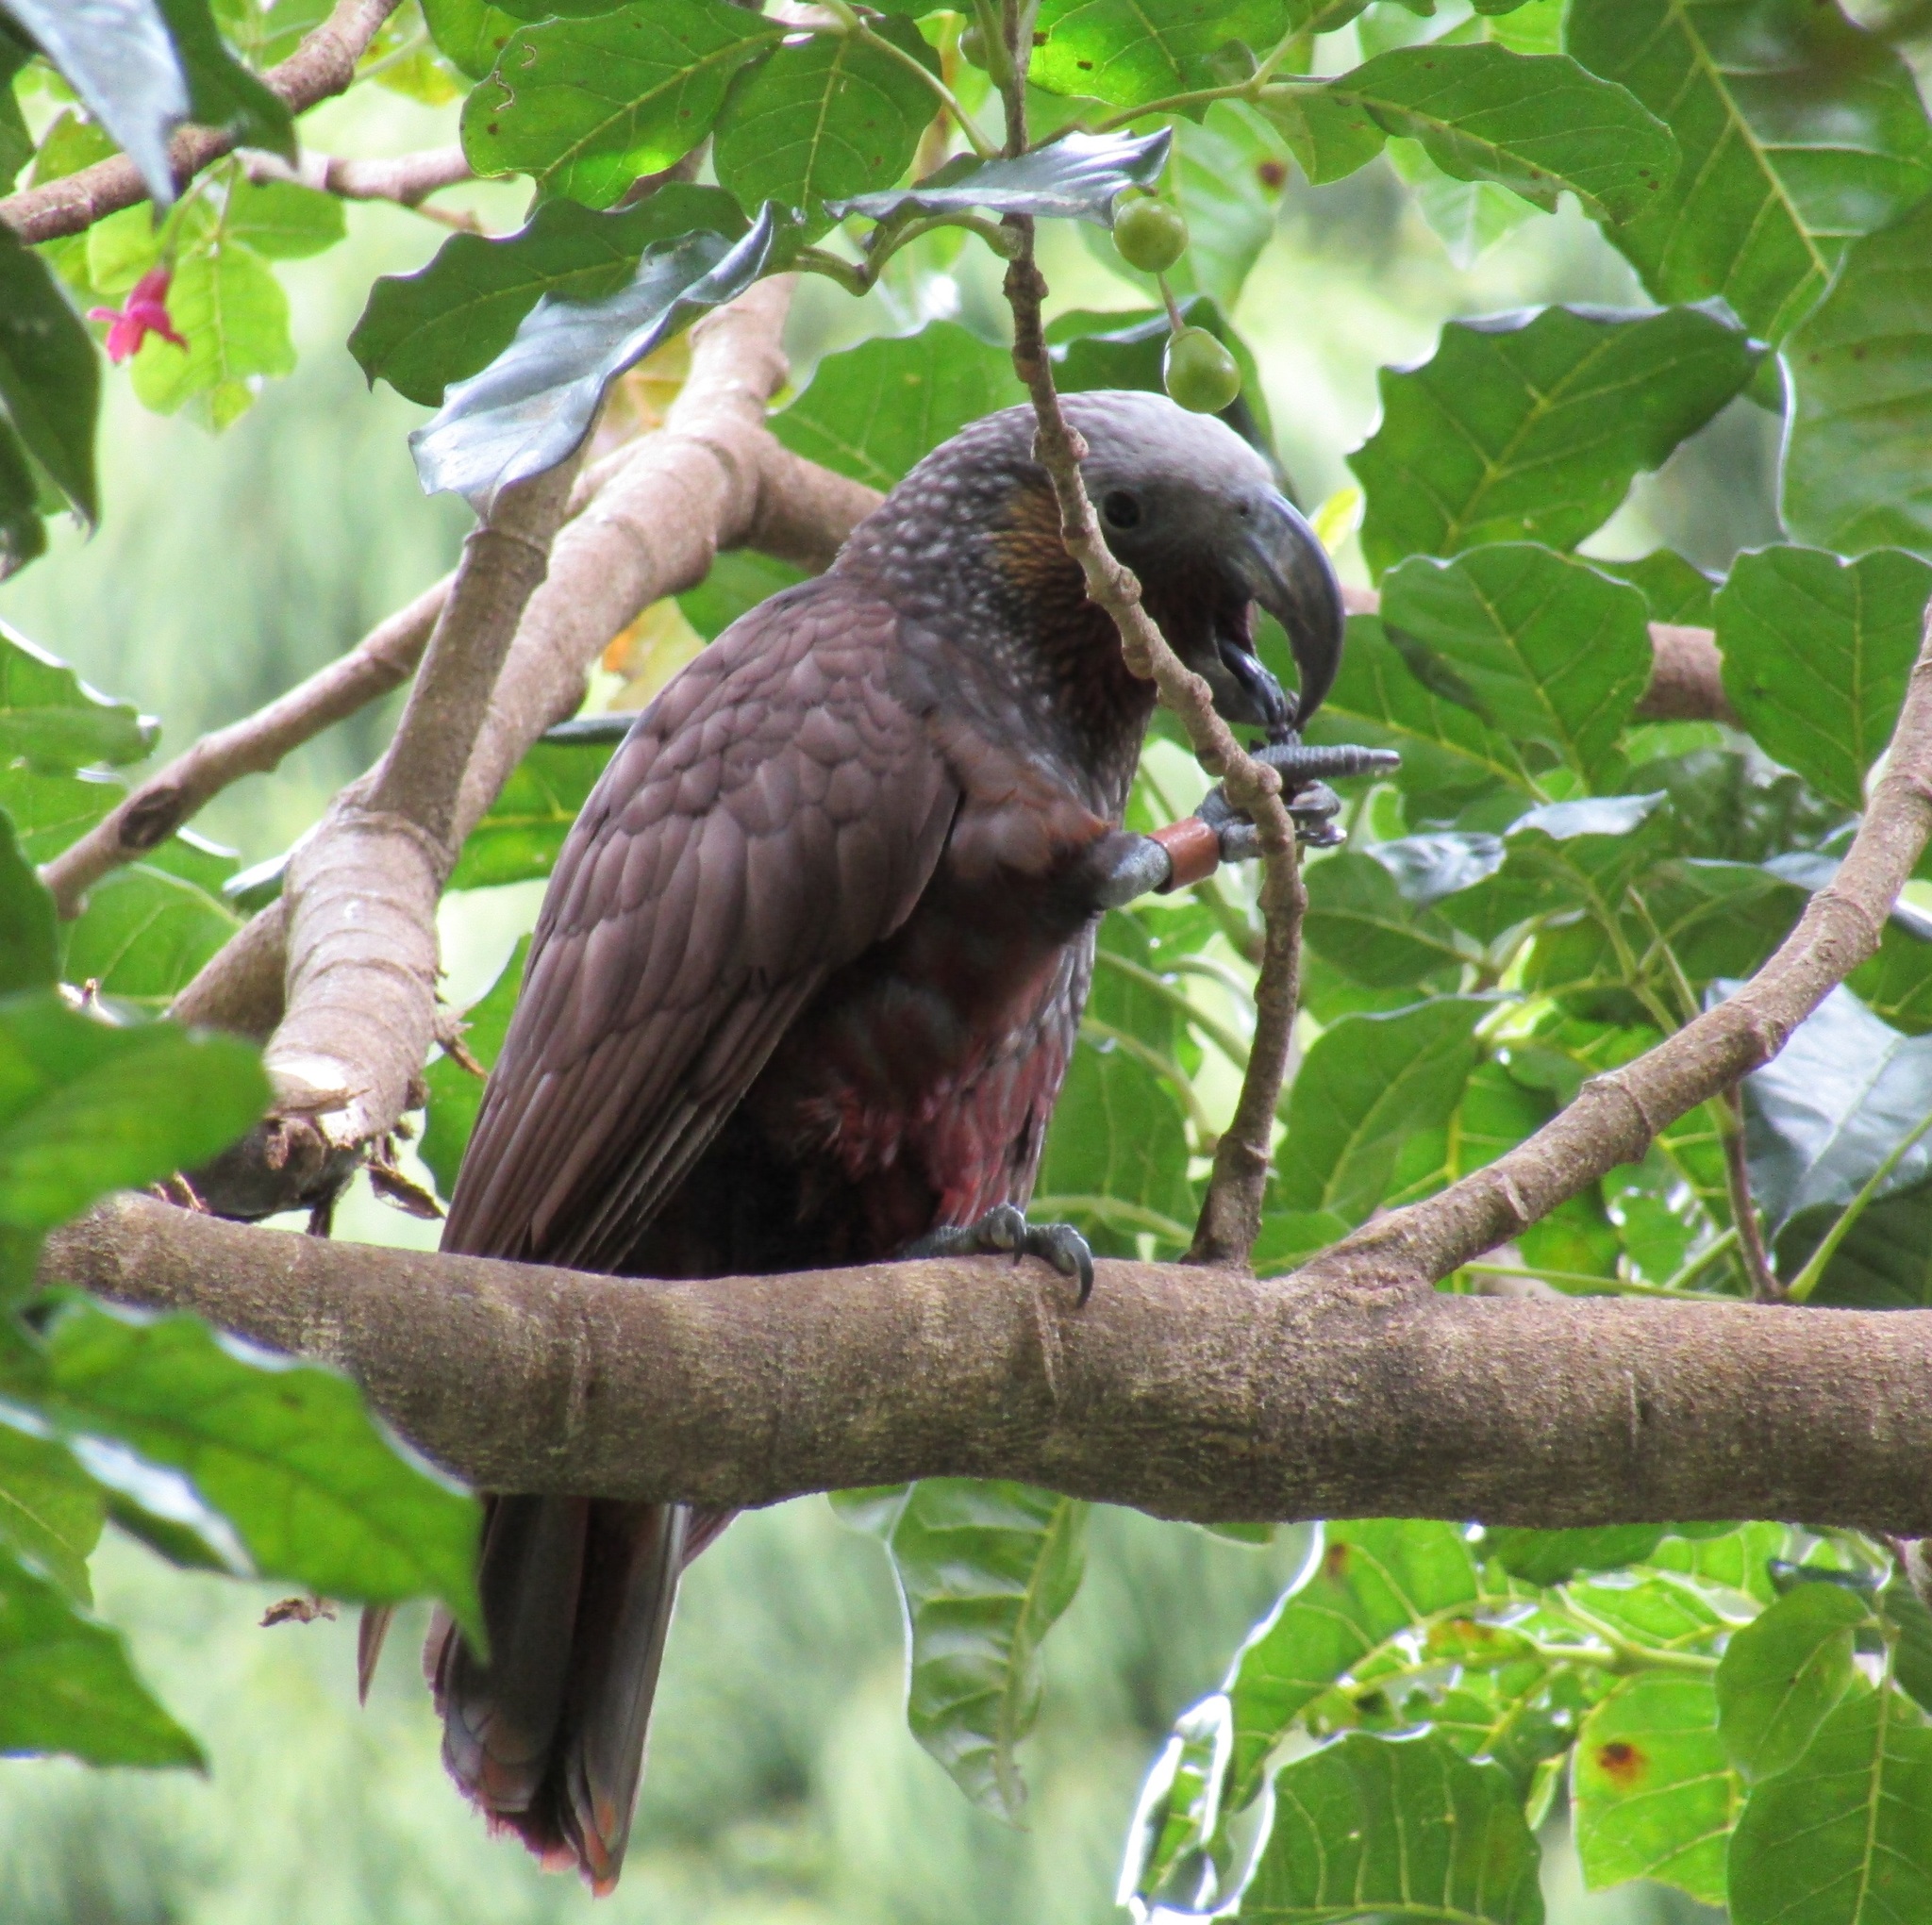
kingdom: Animalia
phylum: Chordata
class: Aves
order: Psittaciformes
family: Psittacidae
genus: Nestor
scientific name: Nestor meridionalis
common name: New zealand kaka
